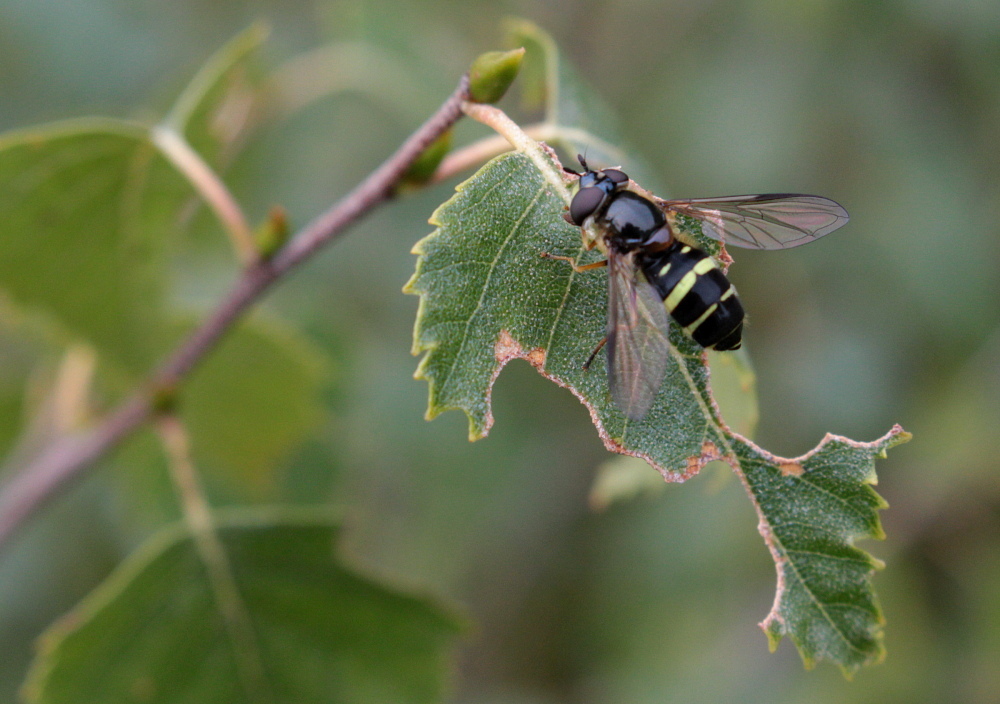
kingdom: Animalia
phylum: Arthropoda
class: Insecta
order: Diptera
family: Syrphidae
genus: Dasysyrphus
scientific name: Dasysyrphus tricinctus
